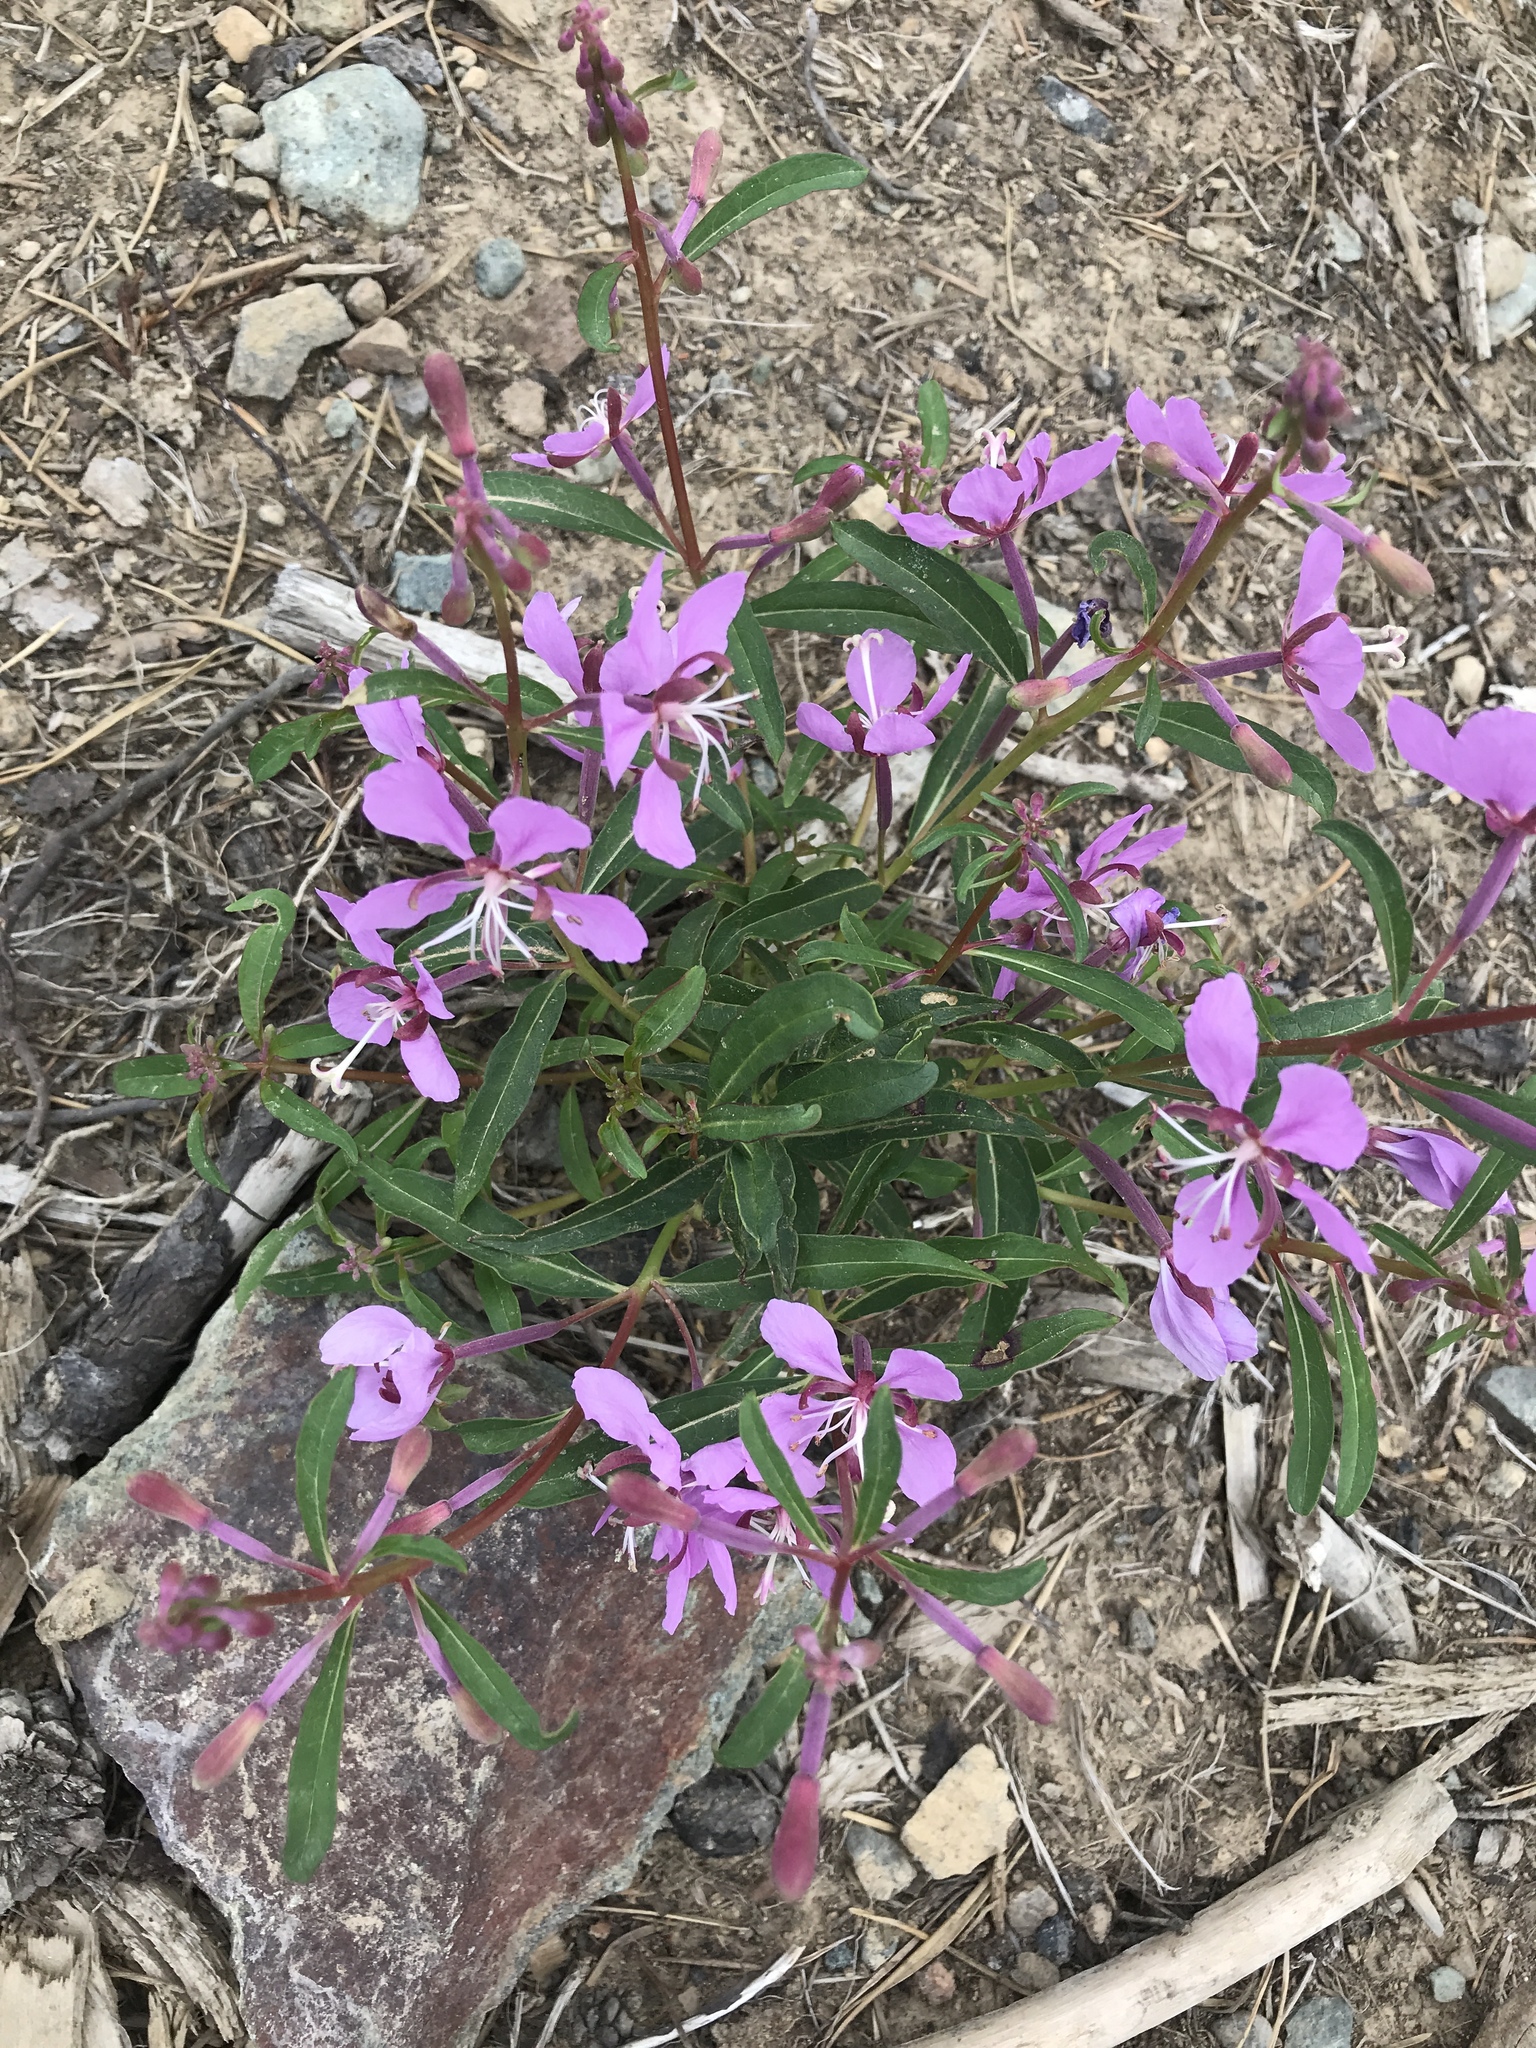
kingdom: Plantae
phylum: Tracheophyta
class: Magnoliopsida
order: Myrtales
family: Onagraceae
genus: Chamaenerion
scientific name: Chamaenerion angustifolium
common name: Fireweed
